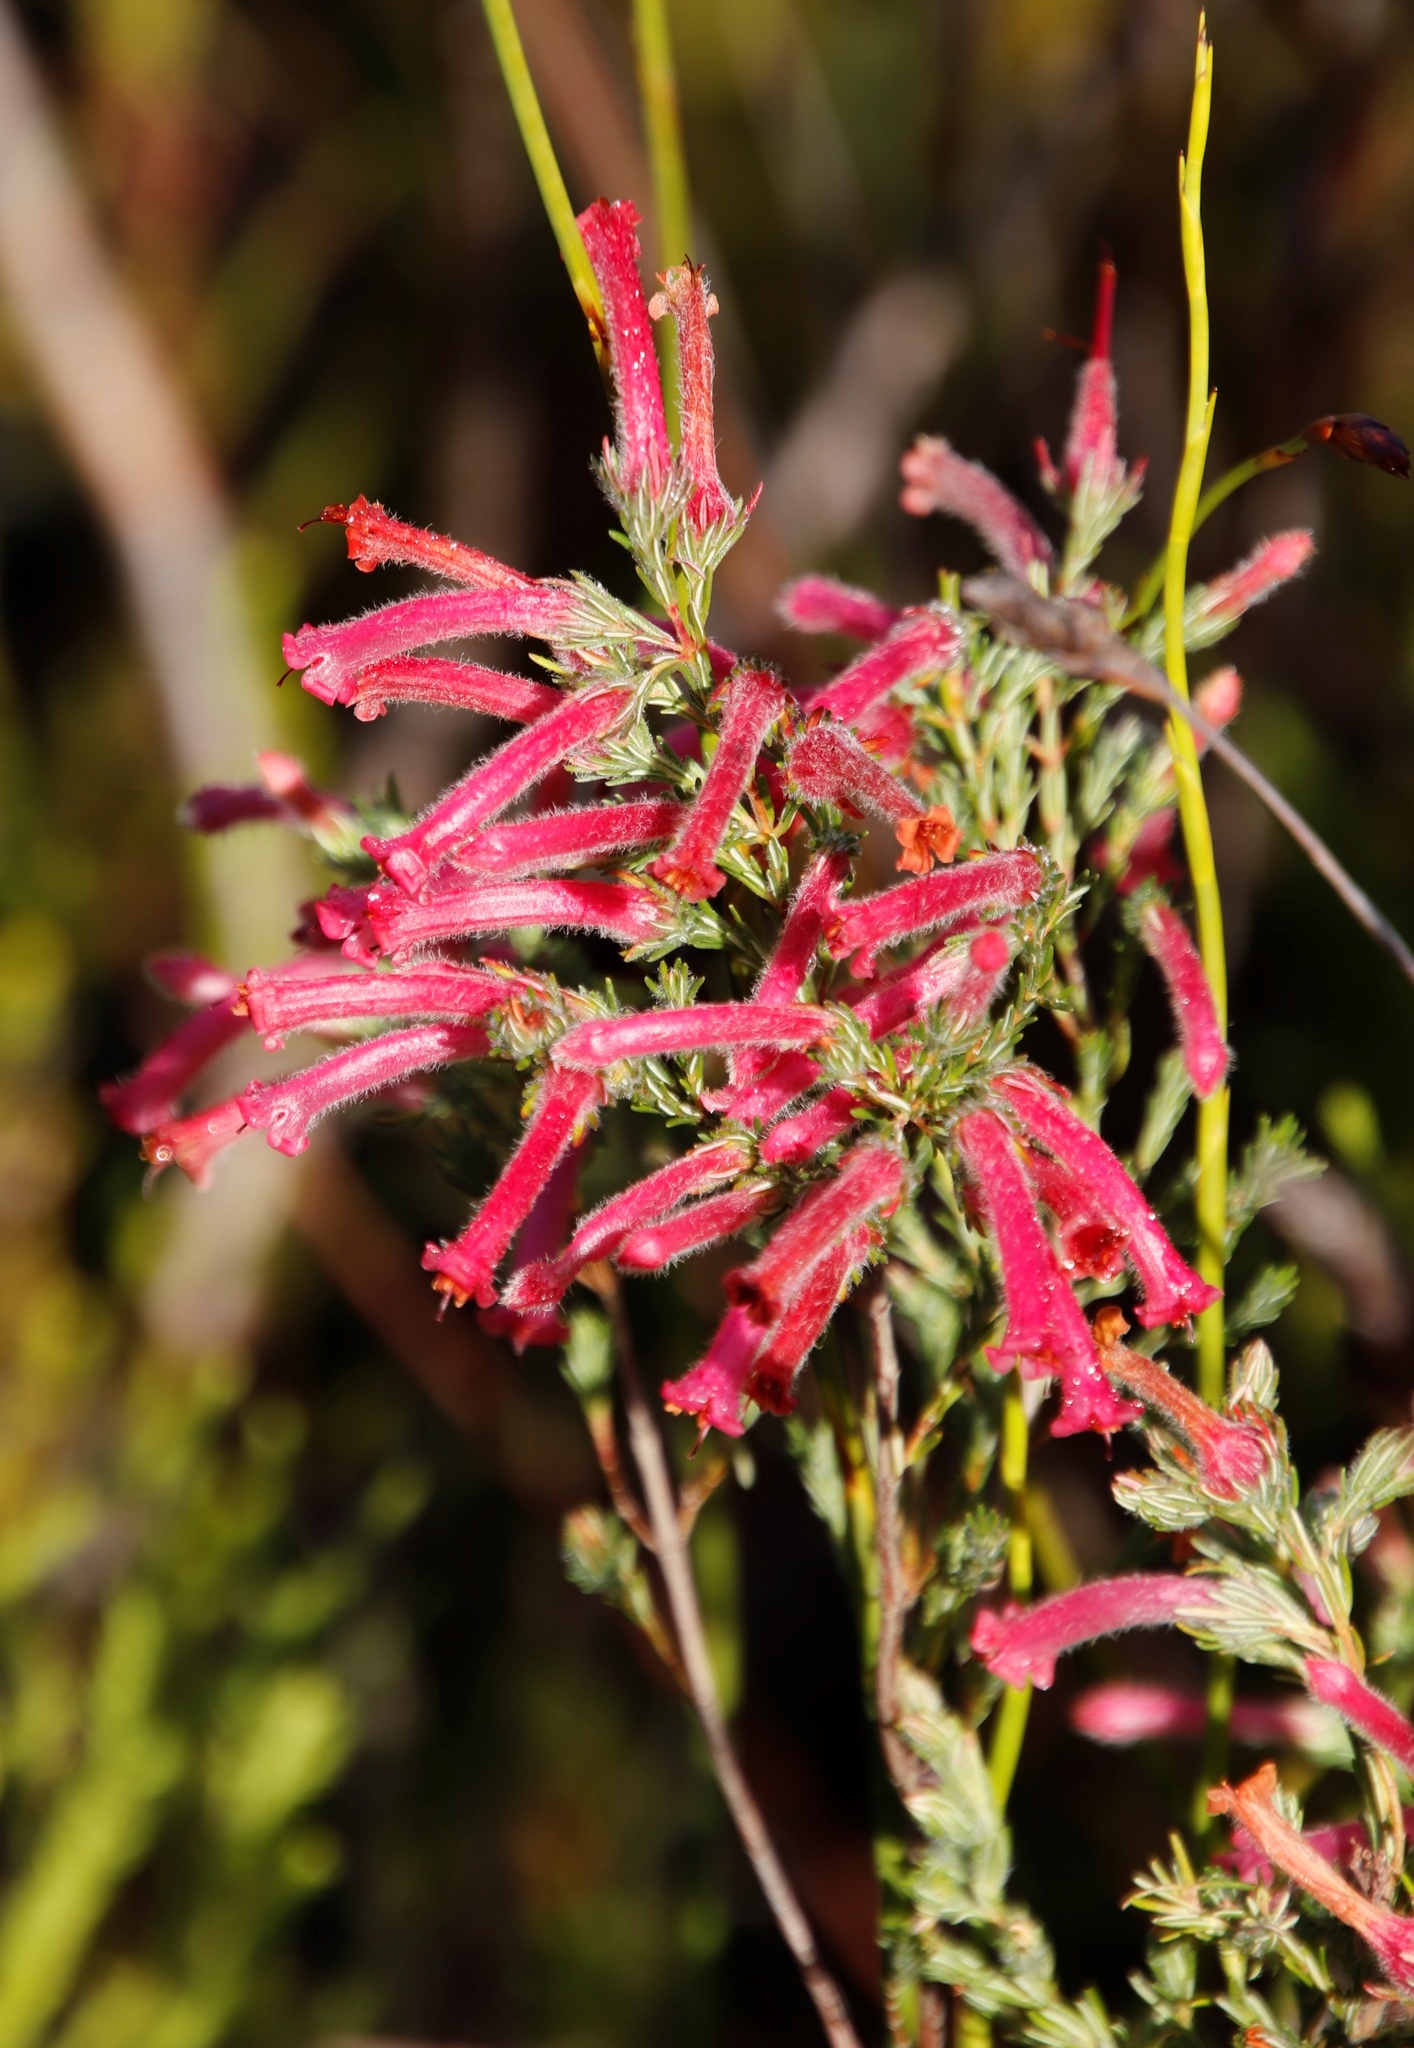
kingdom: Plantae
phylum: Tracheophyta
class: Magnoliopsida
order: Ericales
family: Ericaceae
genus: Erica
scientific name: Erica curviflora
